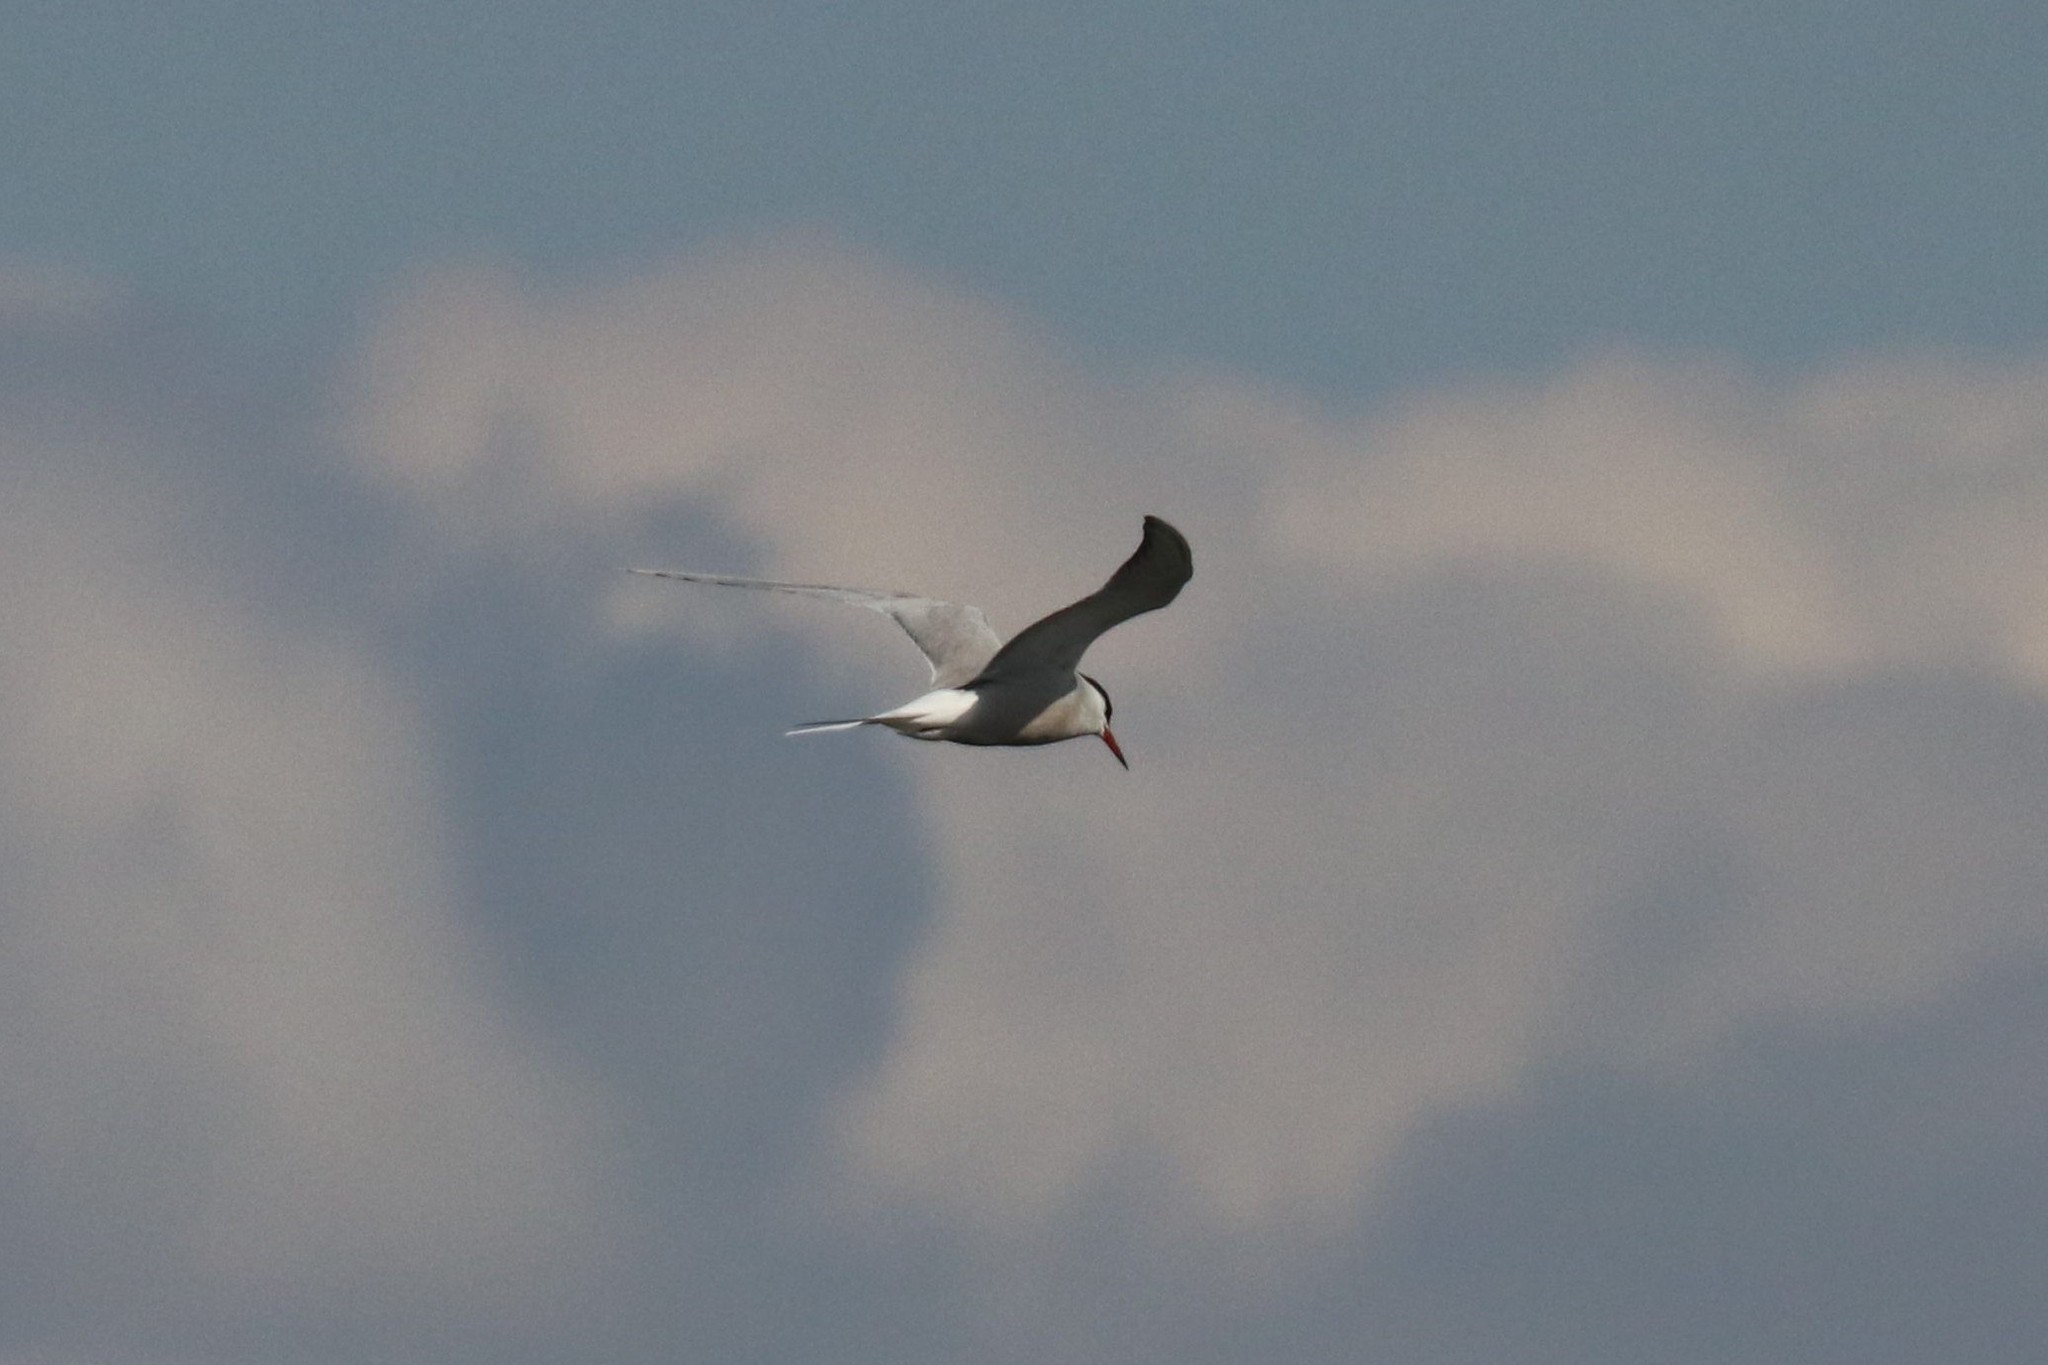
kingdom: Animalia
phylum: Chordata
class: Aves
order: Charadriiformes
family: Laridae
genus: Sterna
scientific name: Sterna hirundo
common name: Common tern
